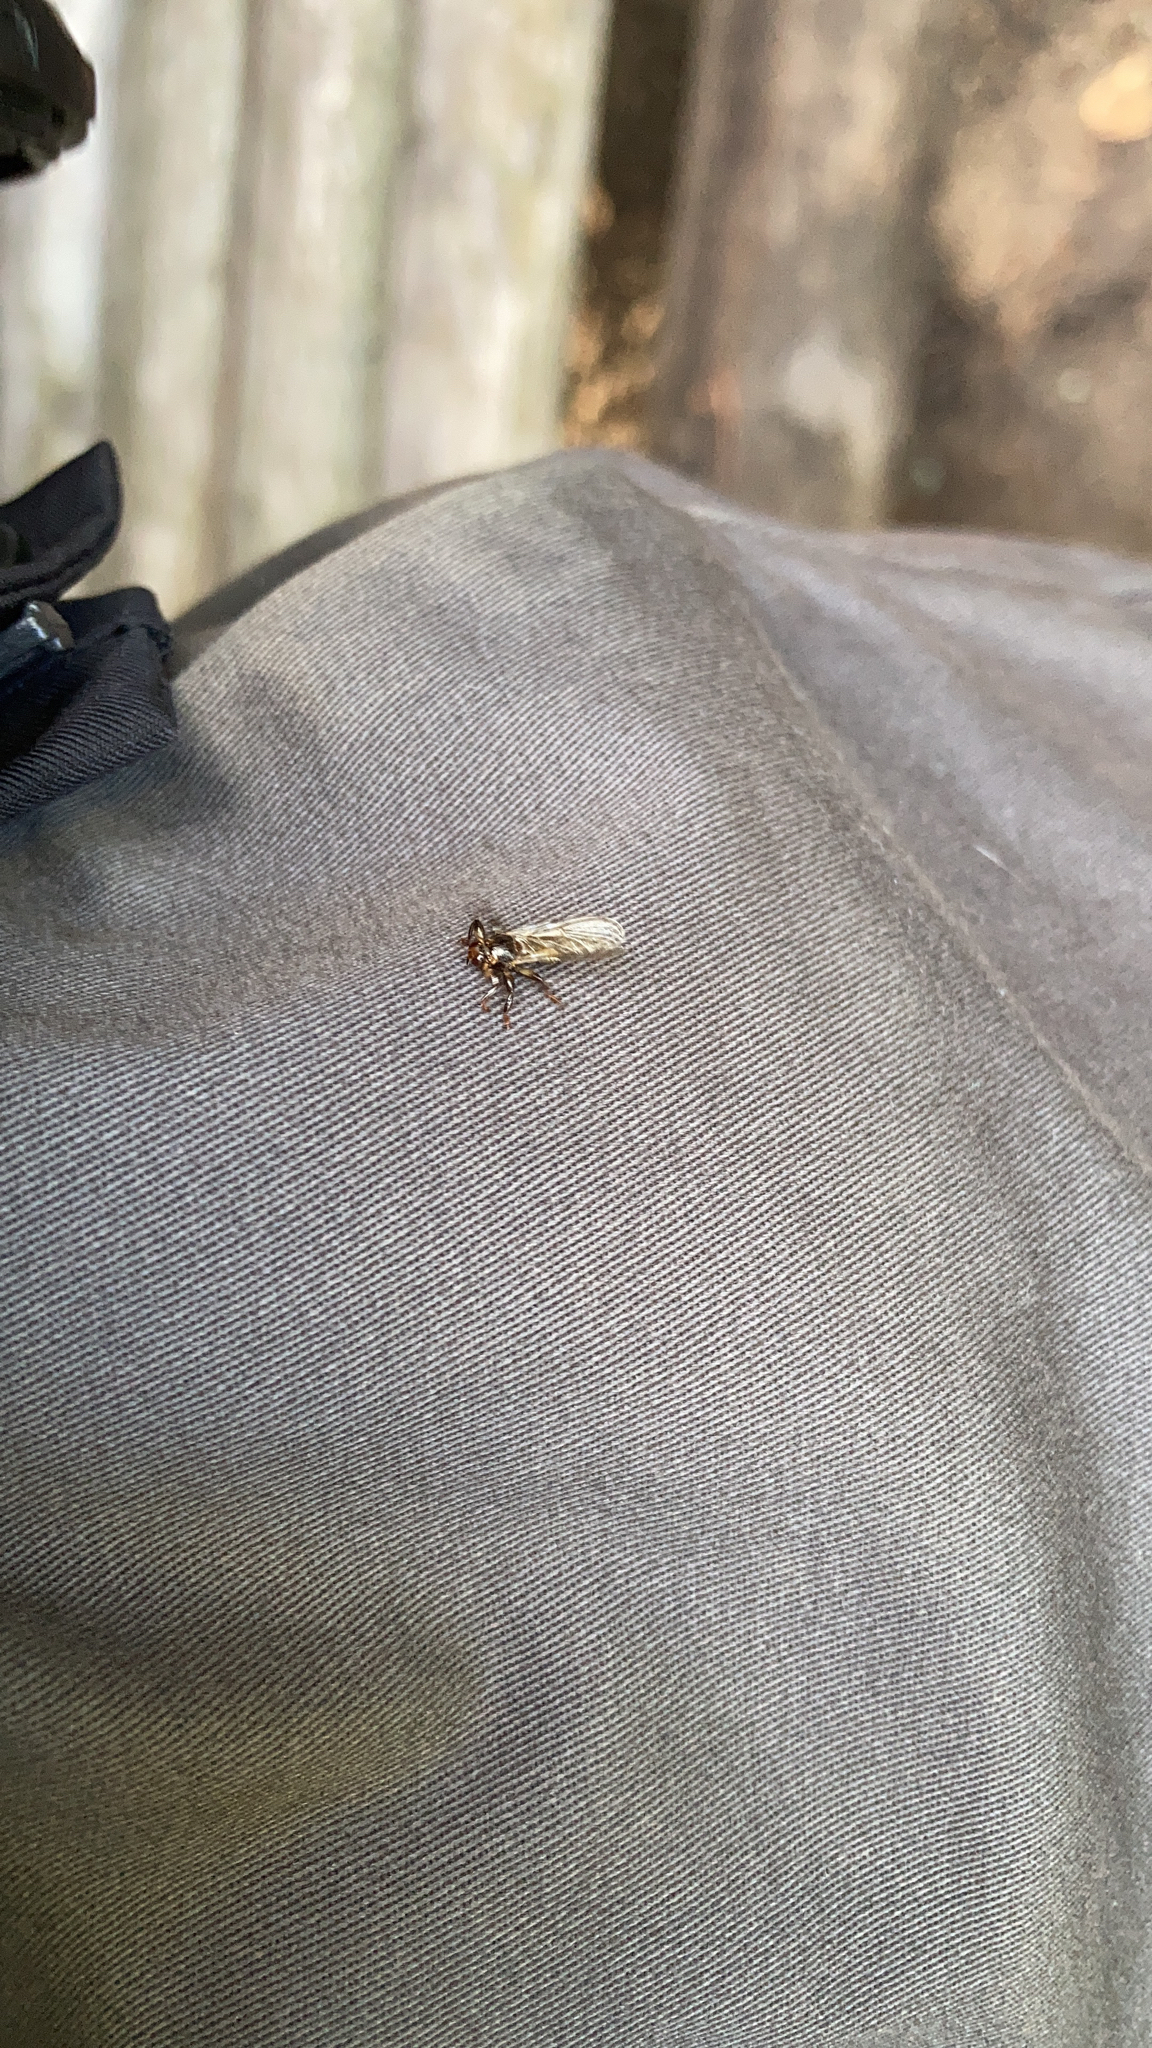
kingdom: Animalia
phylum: Arthropoda
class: Insecta
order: Diptera
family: Hippoboscidae
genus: Lipoptena
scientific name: Lipoptena cervi
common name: Deer ked
